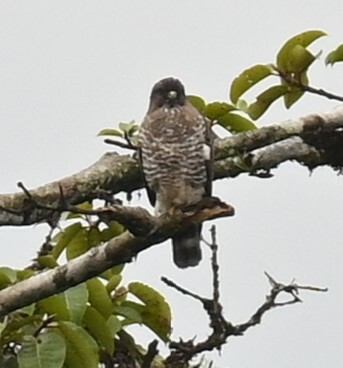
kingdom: Animalia
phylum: Chordata
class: Aves
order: Accipitriformes
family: Accipitridae
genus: Buteo
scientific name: Buteo platypterus
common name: Broad-winged hawk
